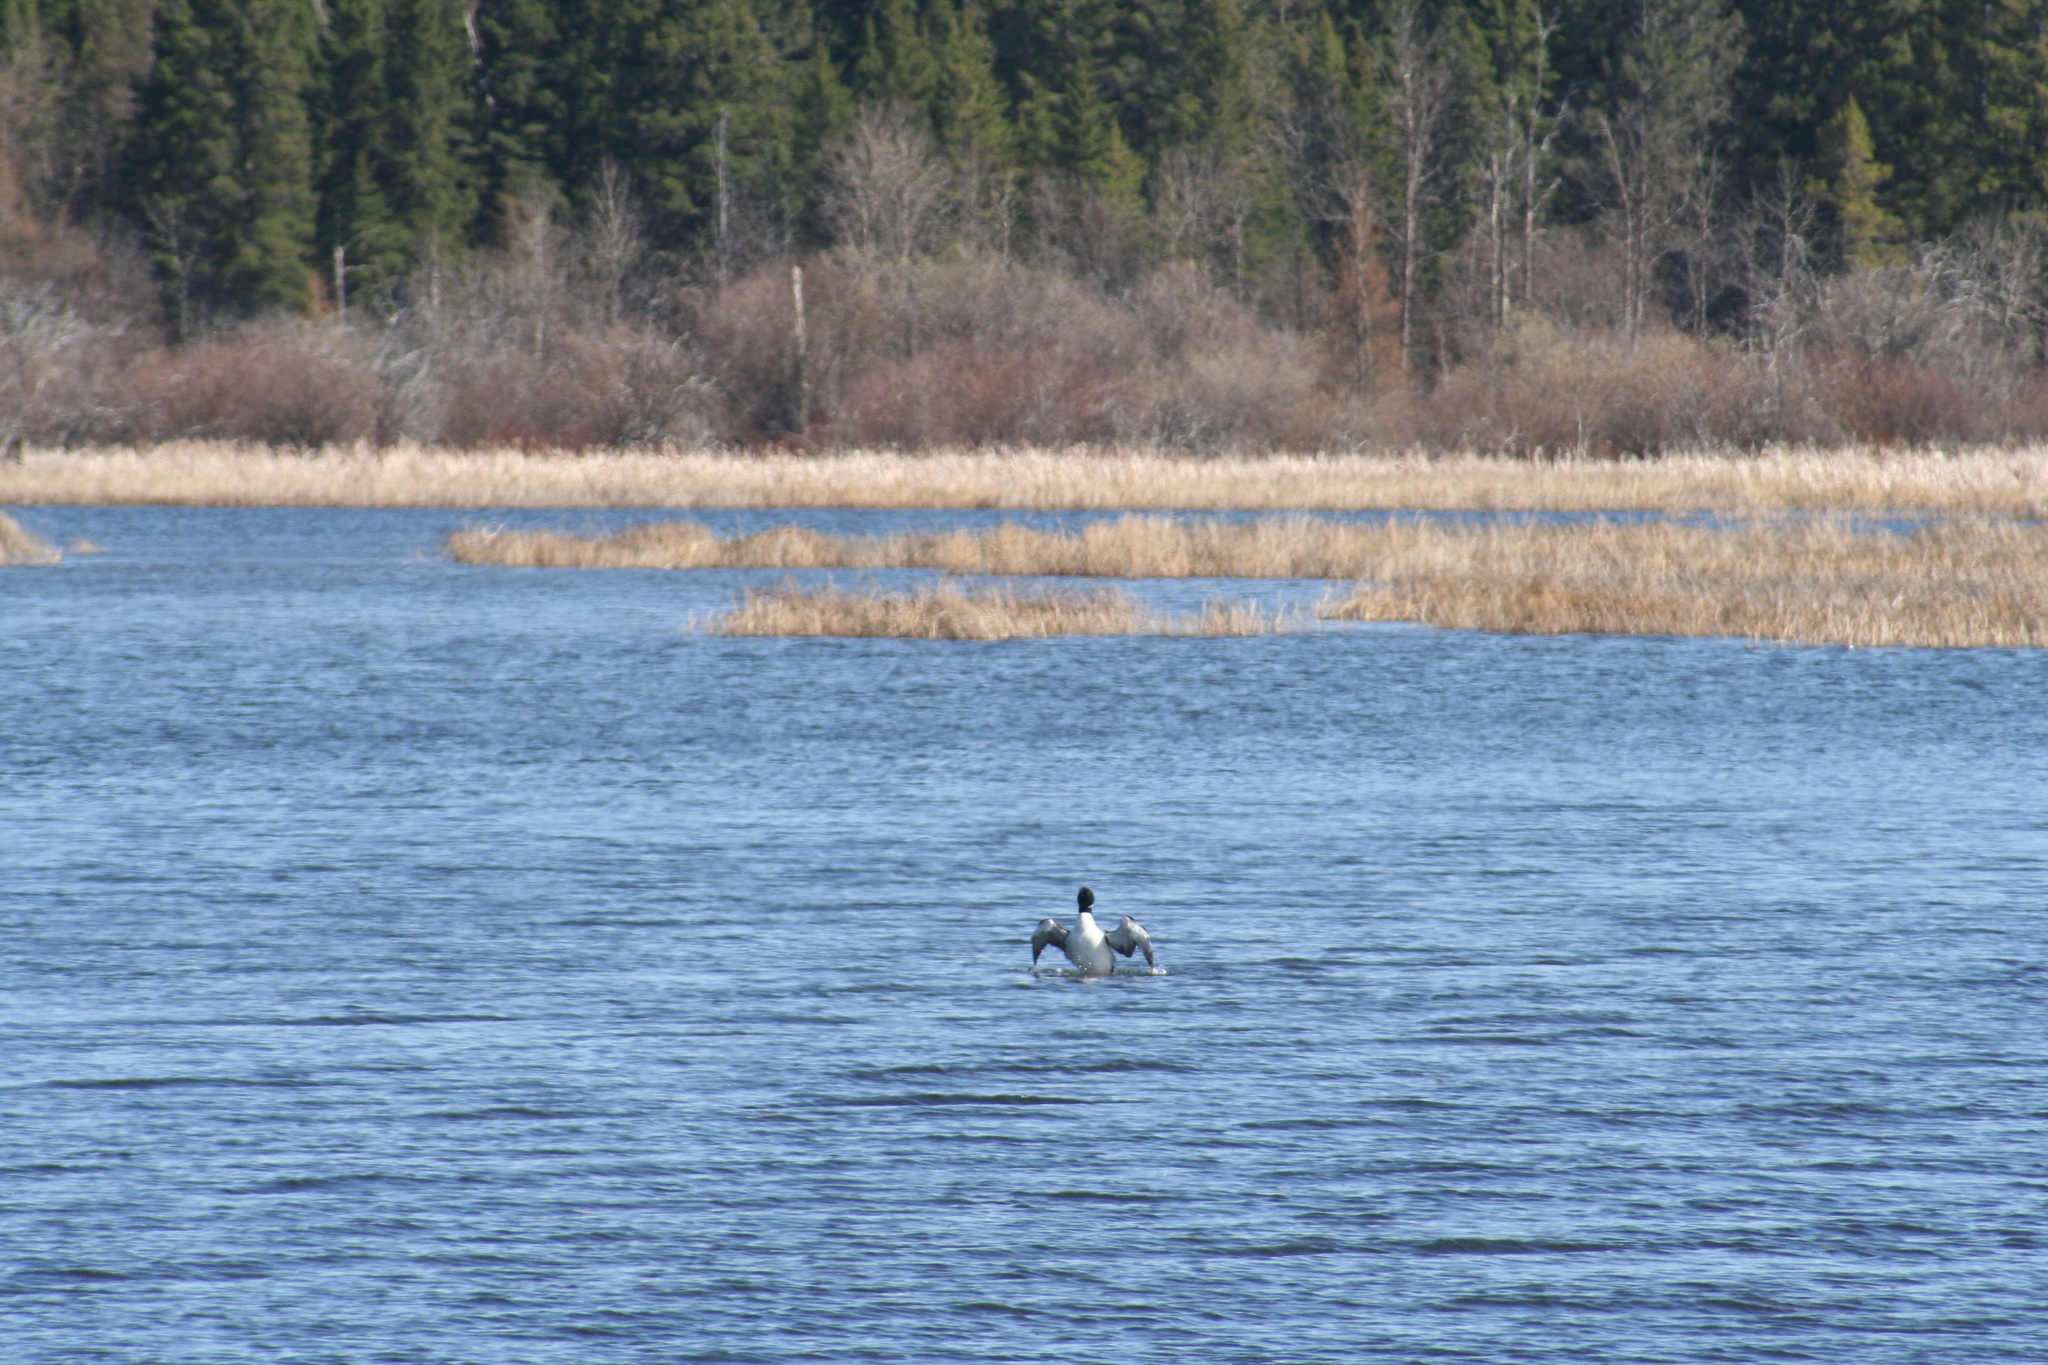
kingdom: Animalia
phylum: Chordata
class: Aves
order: Gaviiformes
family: Gaviidae
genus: Gavia
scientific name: Gavia immer
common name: Common loon
